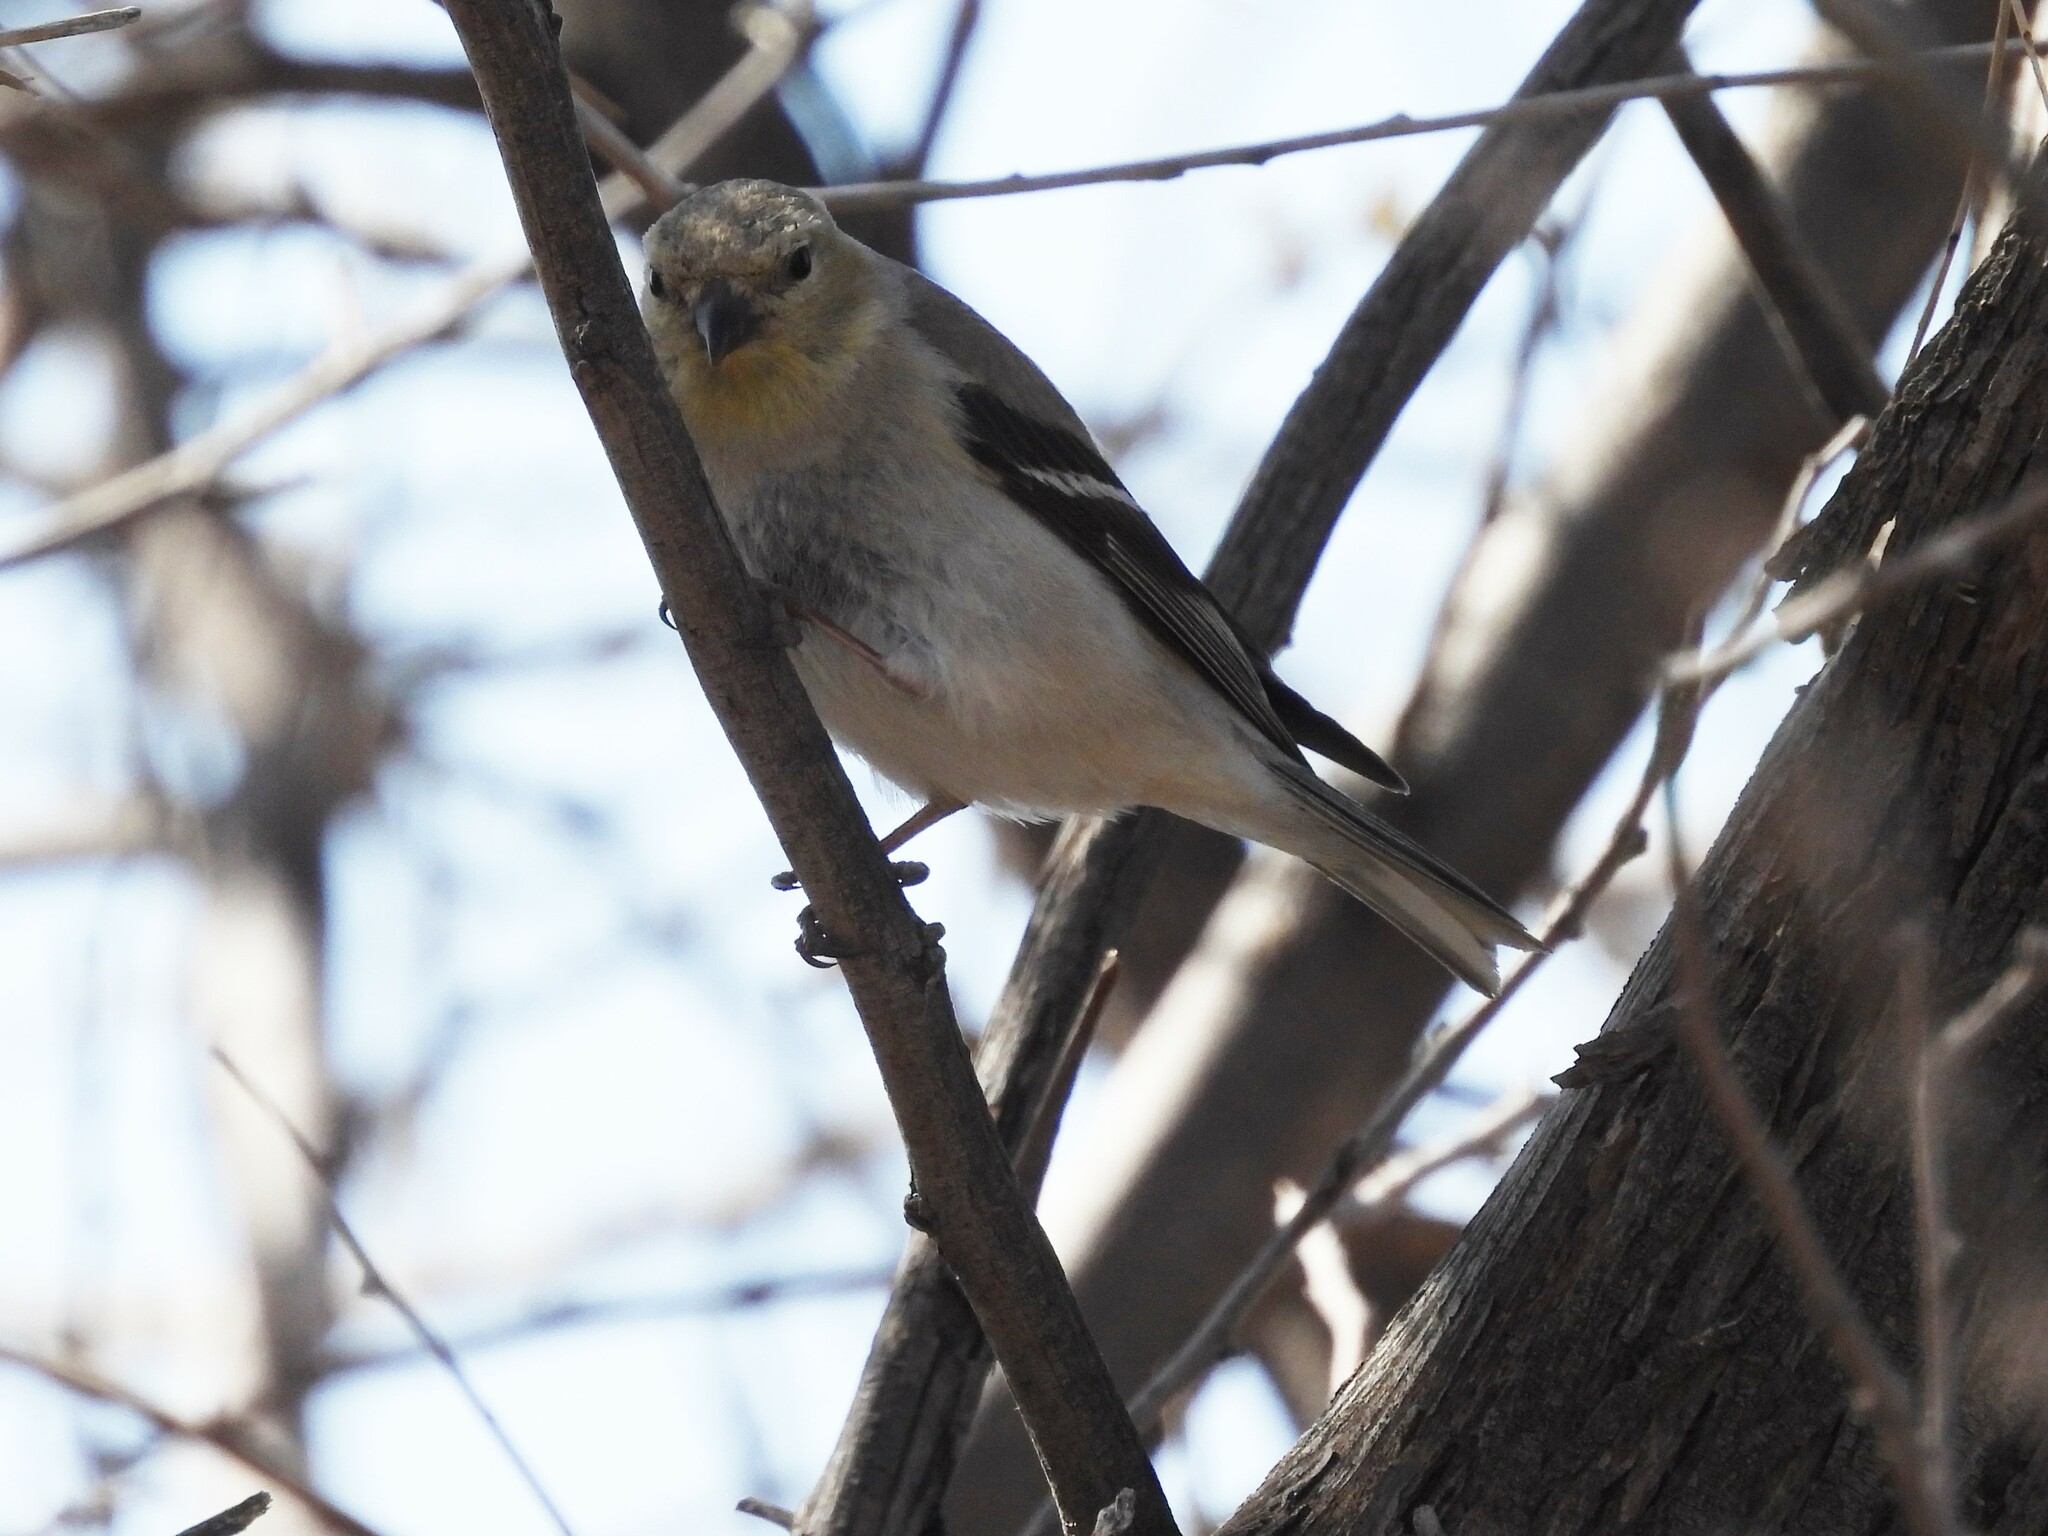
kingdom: Animalia
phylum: Chordata
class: Aves
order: Passeriformes
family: Fringillidae
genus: Spinus
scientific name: Spinus tristis
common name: American goldfinch
